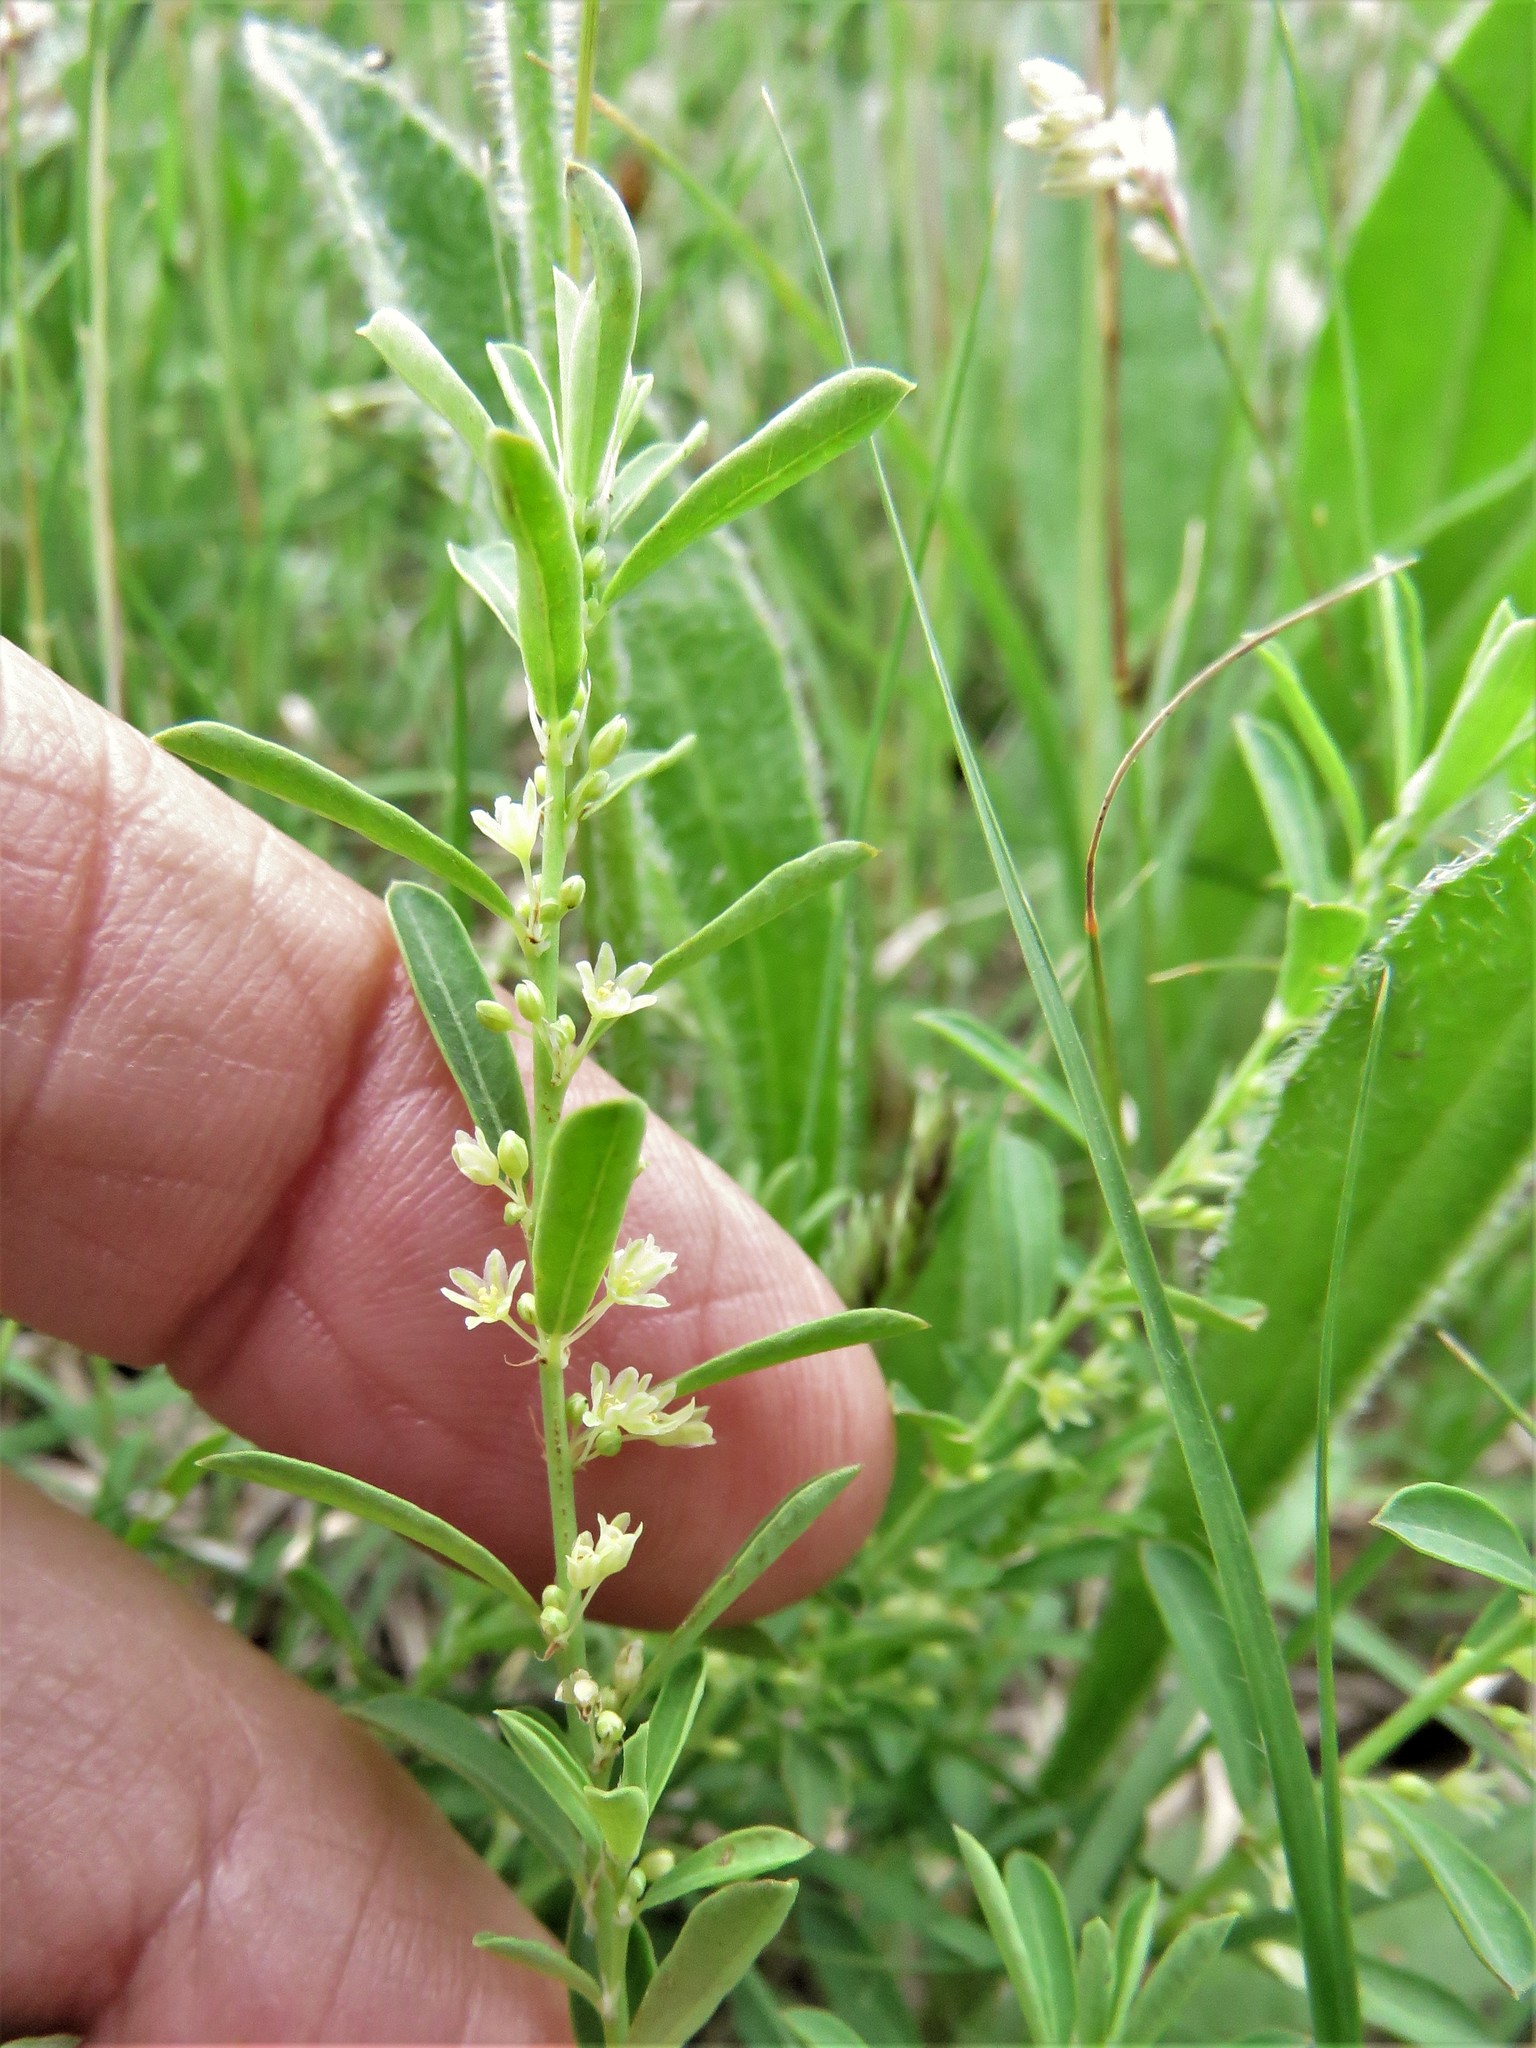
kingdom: Plantae
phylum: Tracheophyta
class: Magnoliopsida
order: Malpighiales
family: Phyllanthaceae
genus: Phyllanthus
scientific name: Phyllanthus polygonoides
